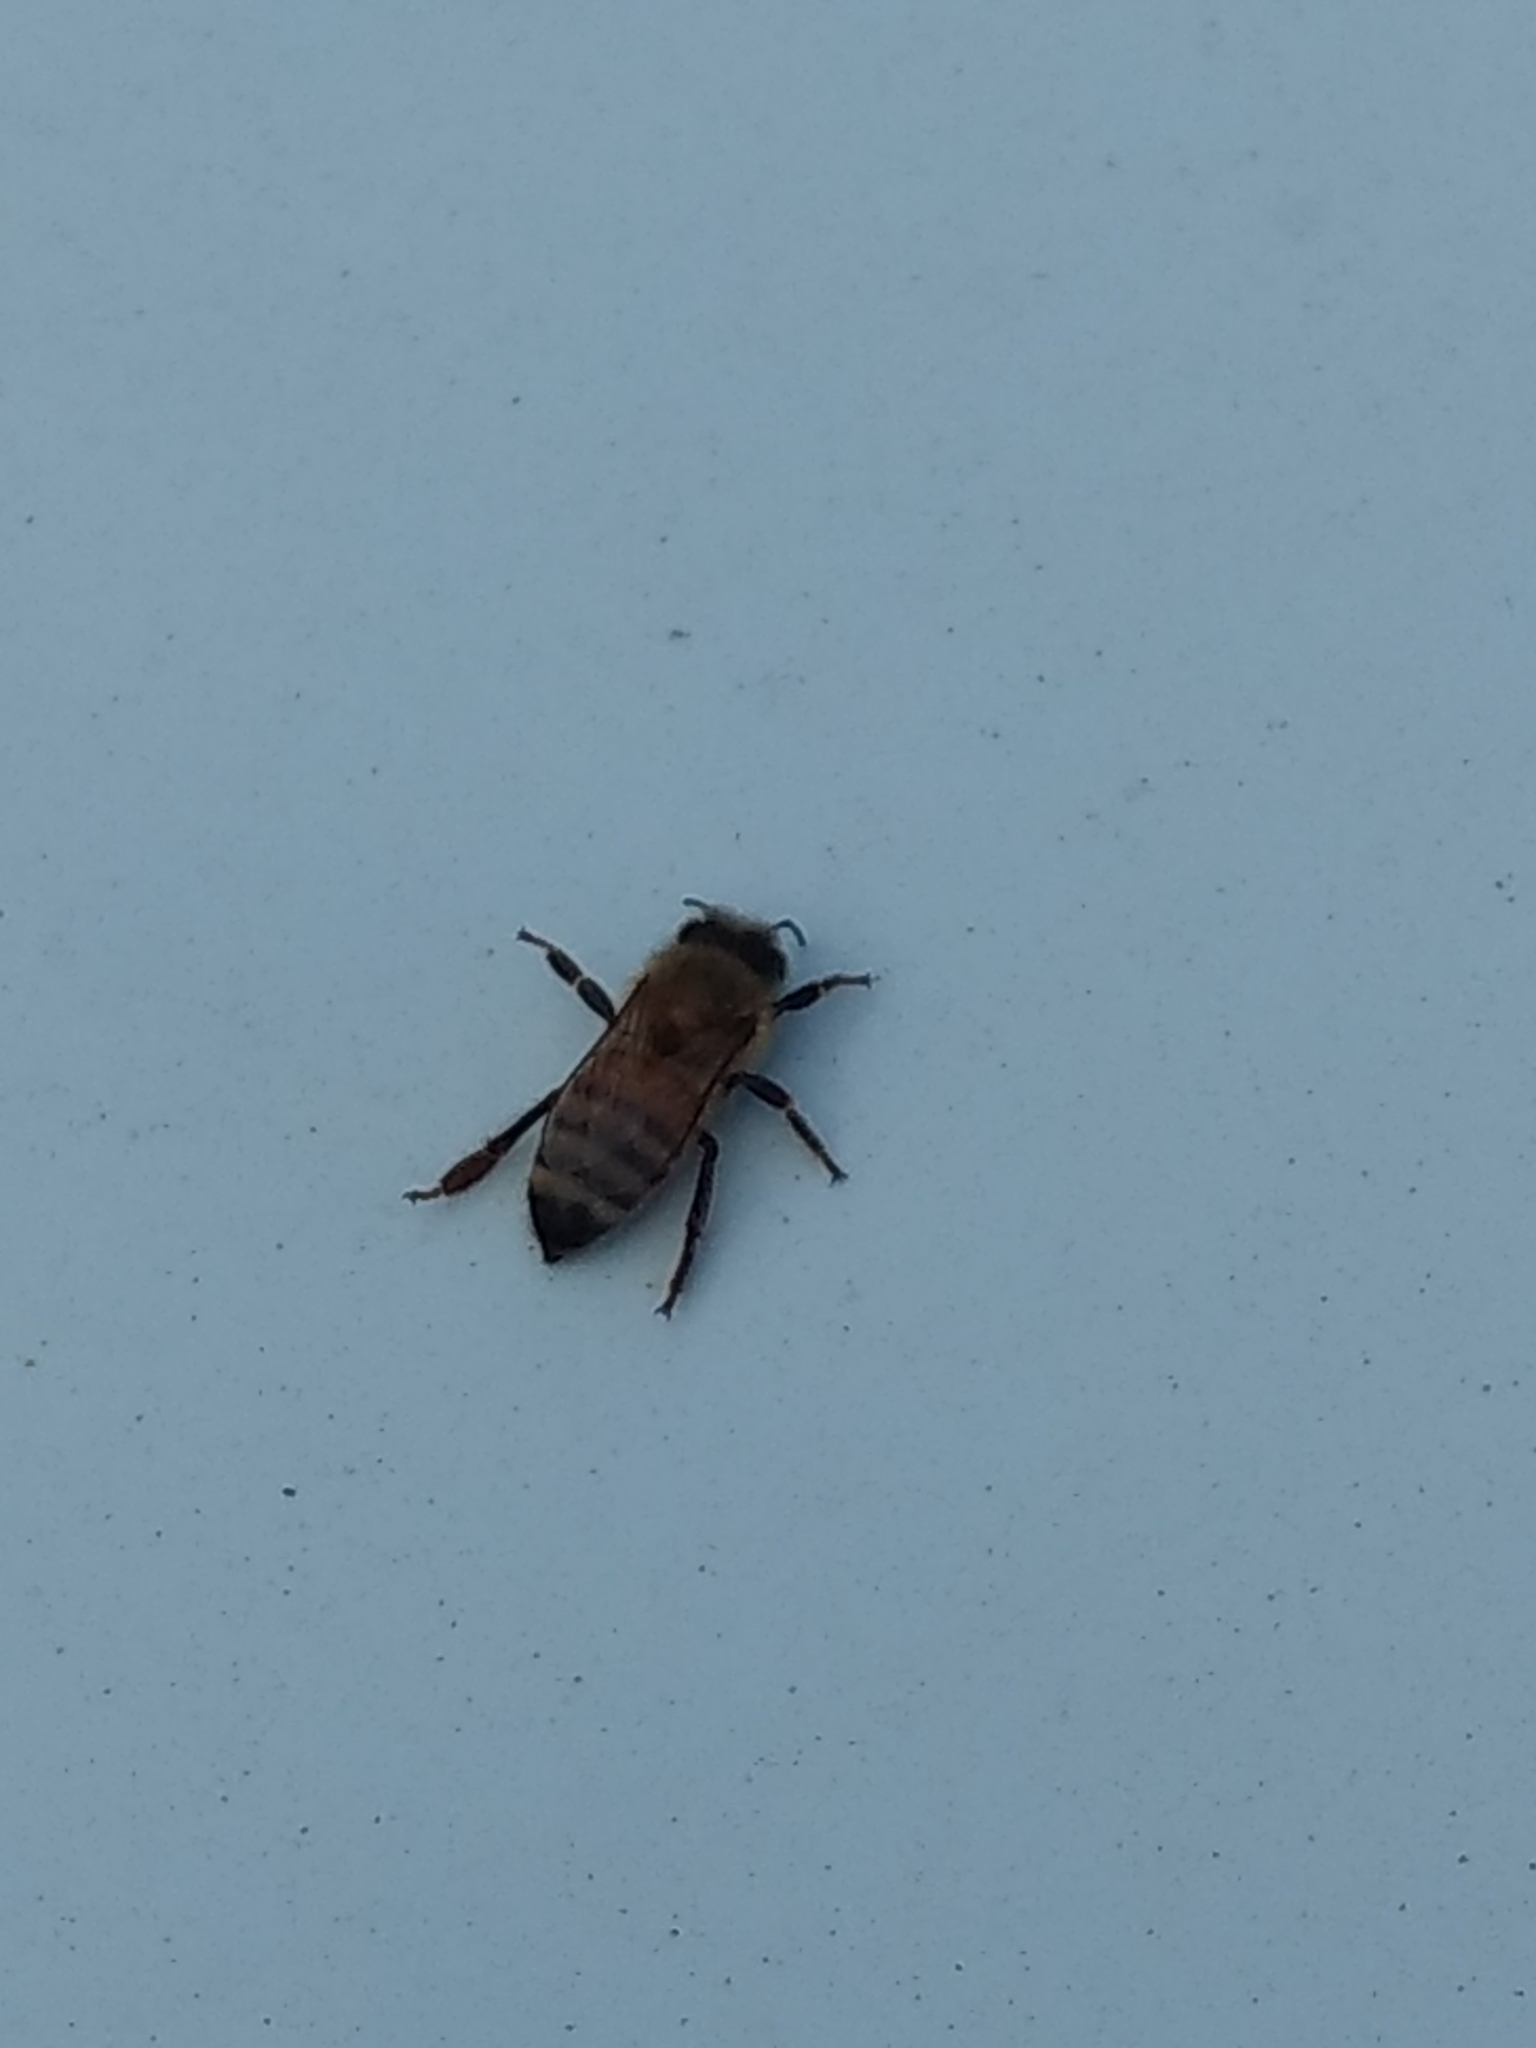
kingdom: Animalia
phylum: Arthropoda
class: Insecta
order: Hymenoptera
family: Apidae
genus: Apis
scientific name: Apis mellifera
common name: Honey bee
